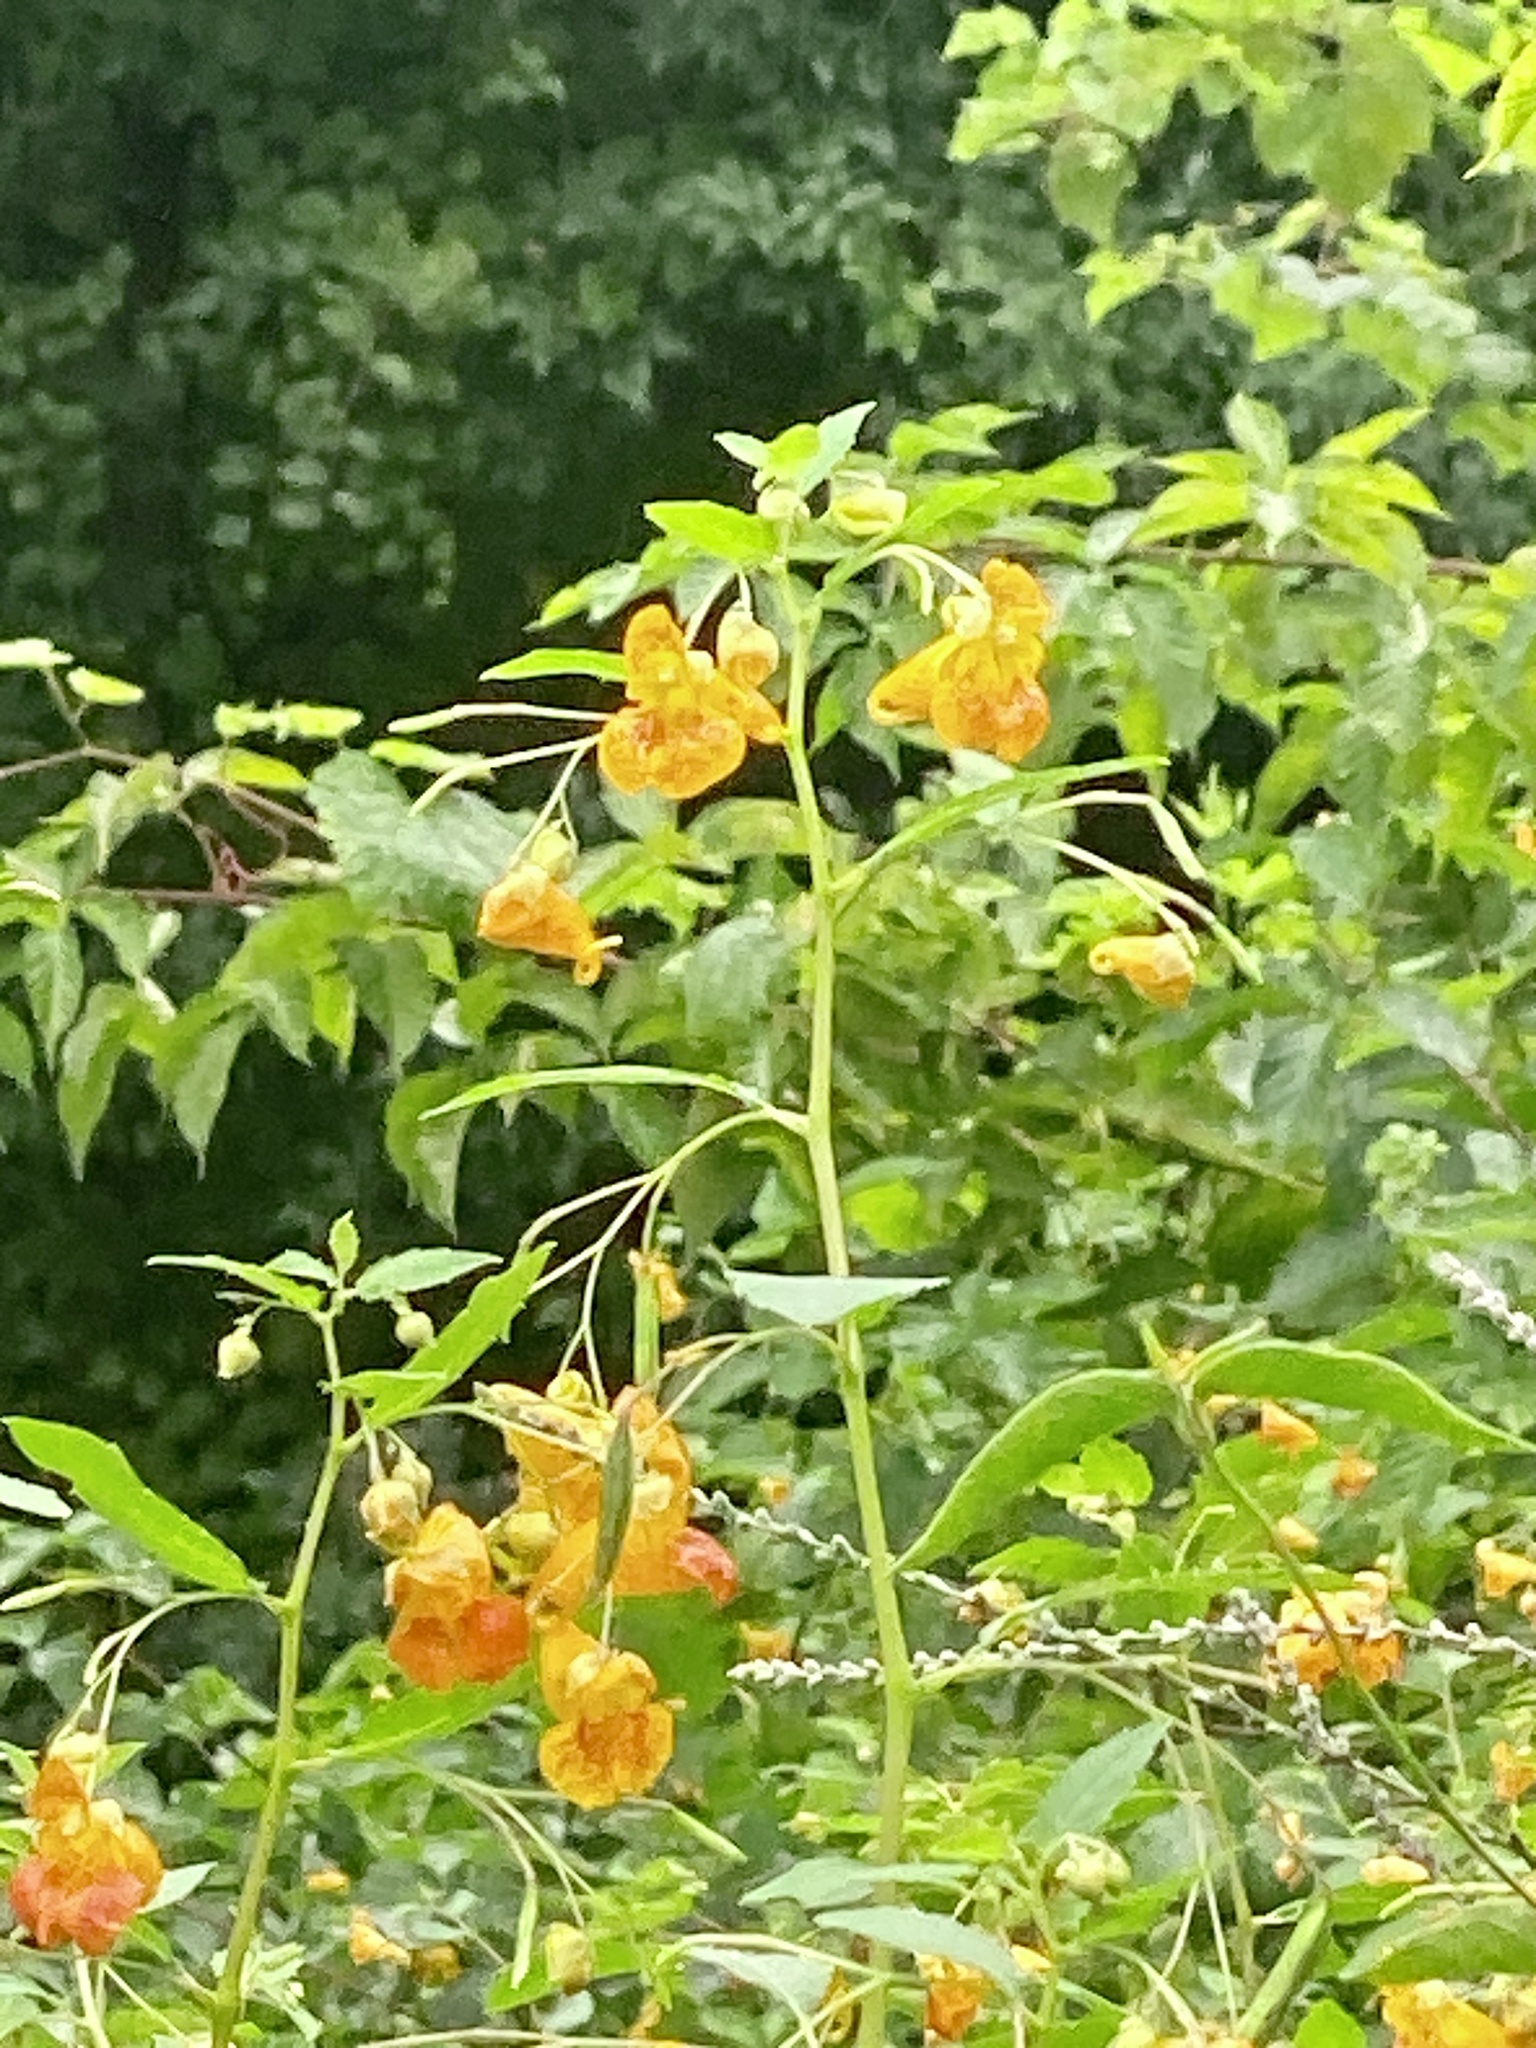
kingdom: Plantae
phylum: Tracheophyta
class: Magnoliopsida
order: Ericales
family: Balsaminaceae
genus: Impatiens
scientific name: Impatiens capensis
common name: Orange balsam
